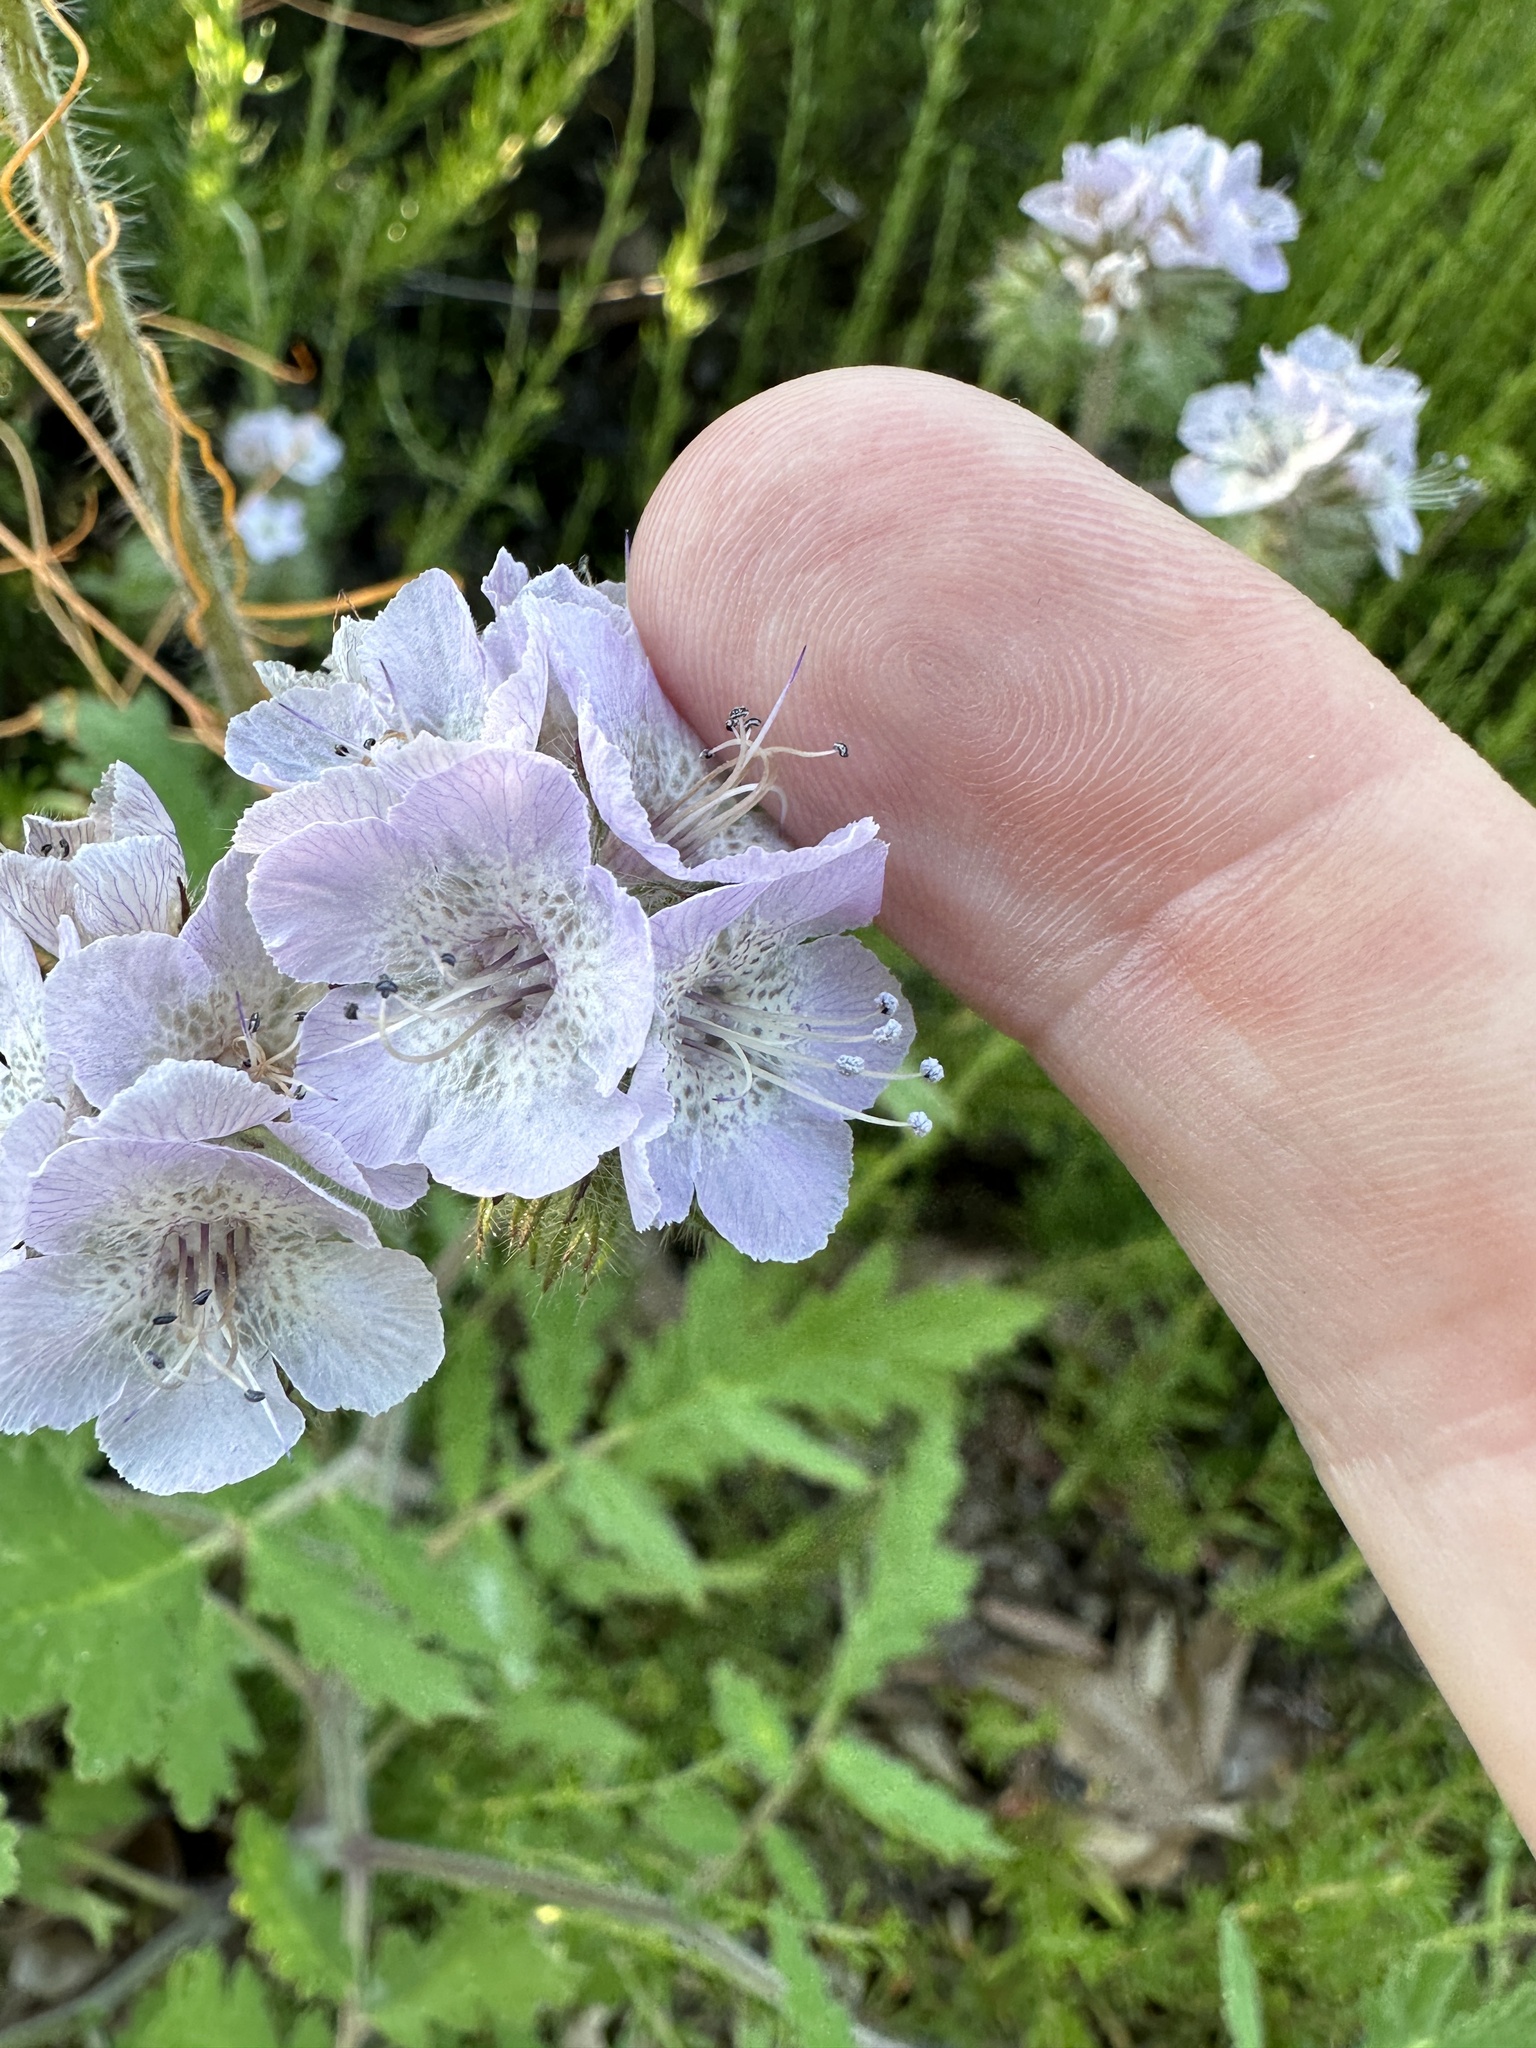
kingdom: Plantae
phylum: Tracheophyta
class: Magnoliopsida
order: Boraginales
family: Hydrophyllaceae
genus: Phacelia
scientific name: Phacelia cicutaria
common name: Caterpillar phacelia
